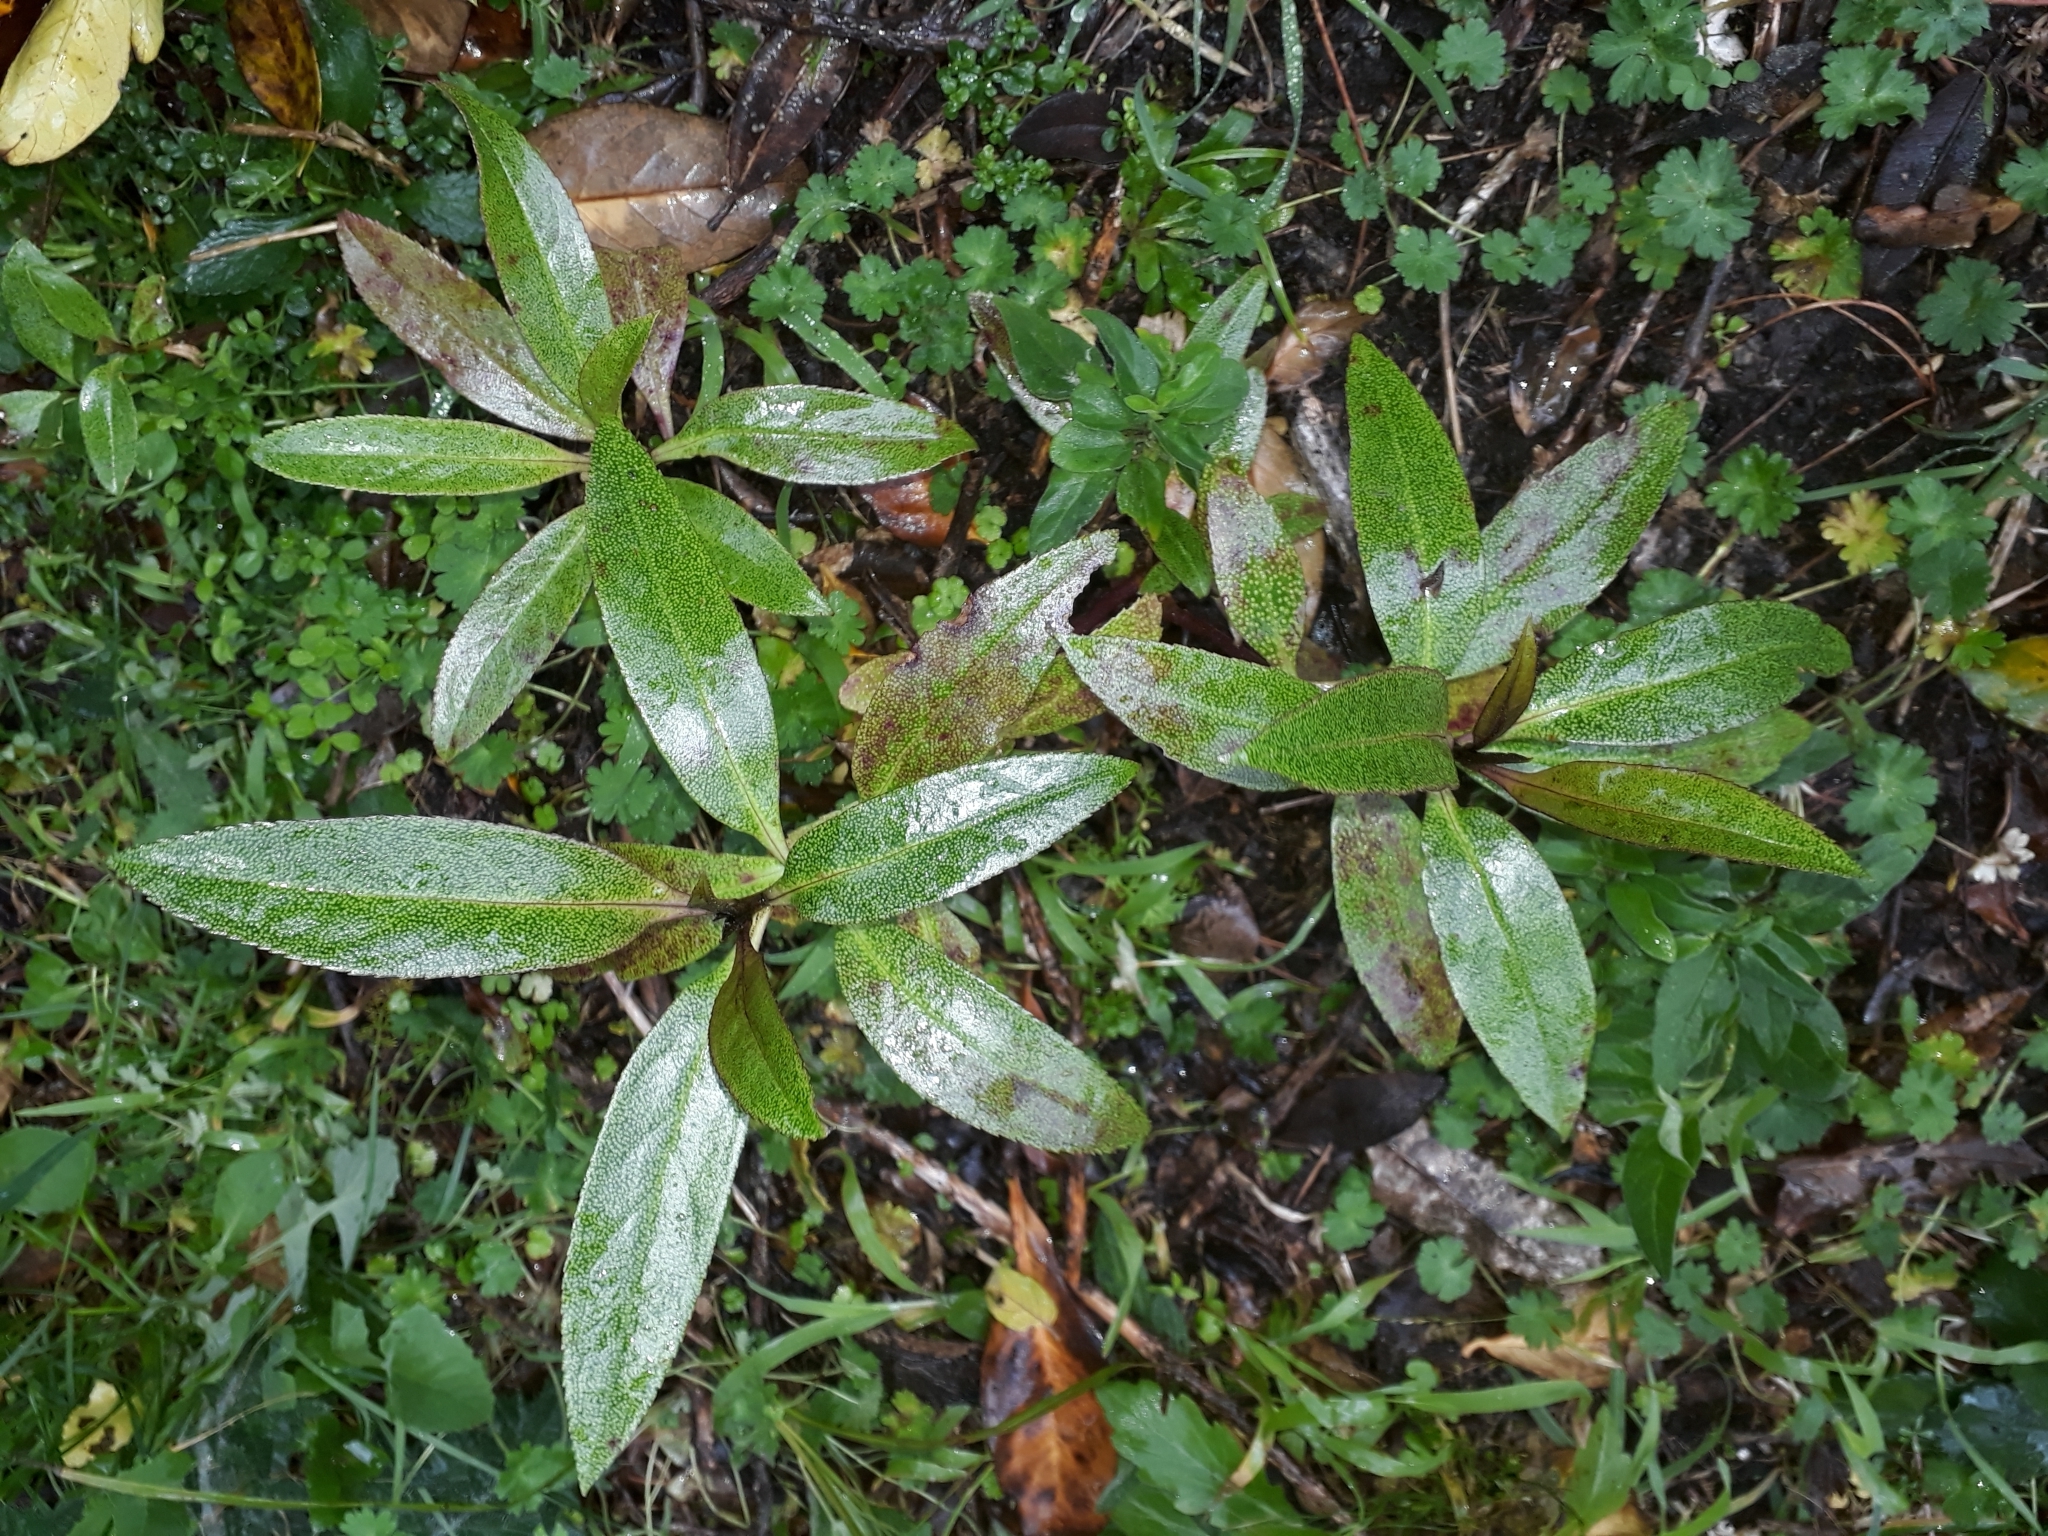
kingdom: Plantae
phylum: Tracheophyta
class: Magnoliopsida
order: Lamiales
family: Scrophulariaceae
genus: Myoporum
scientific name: Myoporum laetum
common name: Ngaio tree
